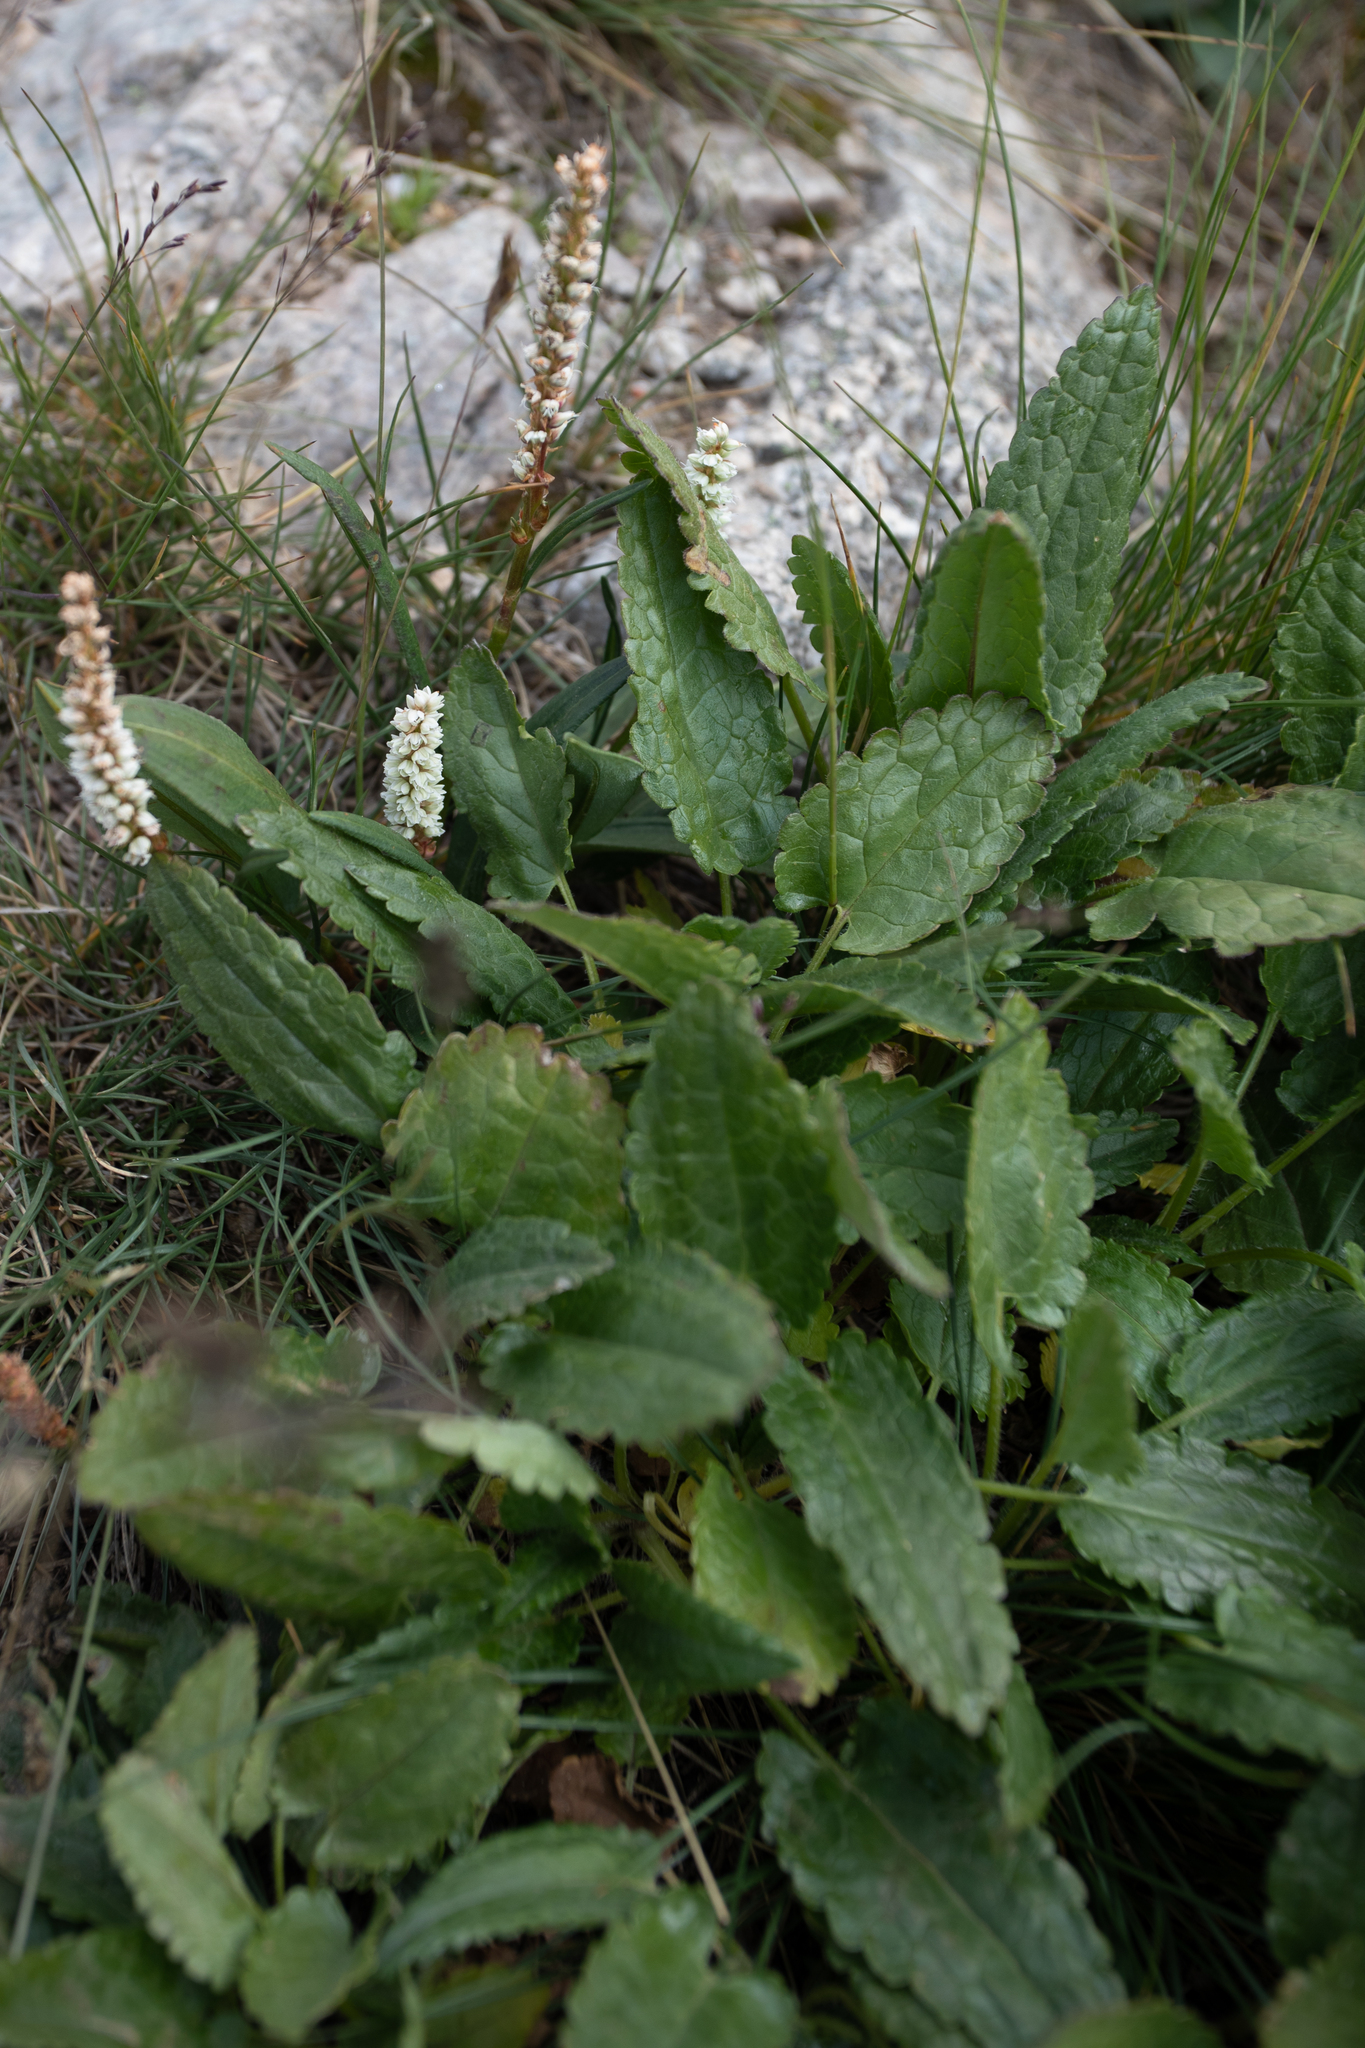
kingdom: Plantae
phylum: Tracheophyta
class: Magnoliopsida
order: Lamiales
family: Lamiaceae
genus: Dracocephalum
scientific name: Dracocephalum grandiflorum
